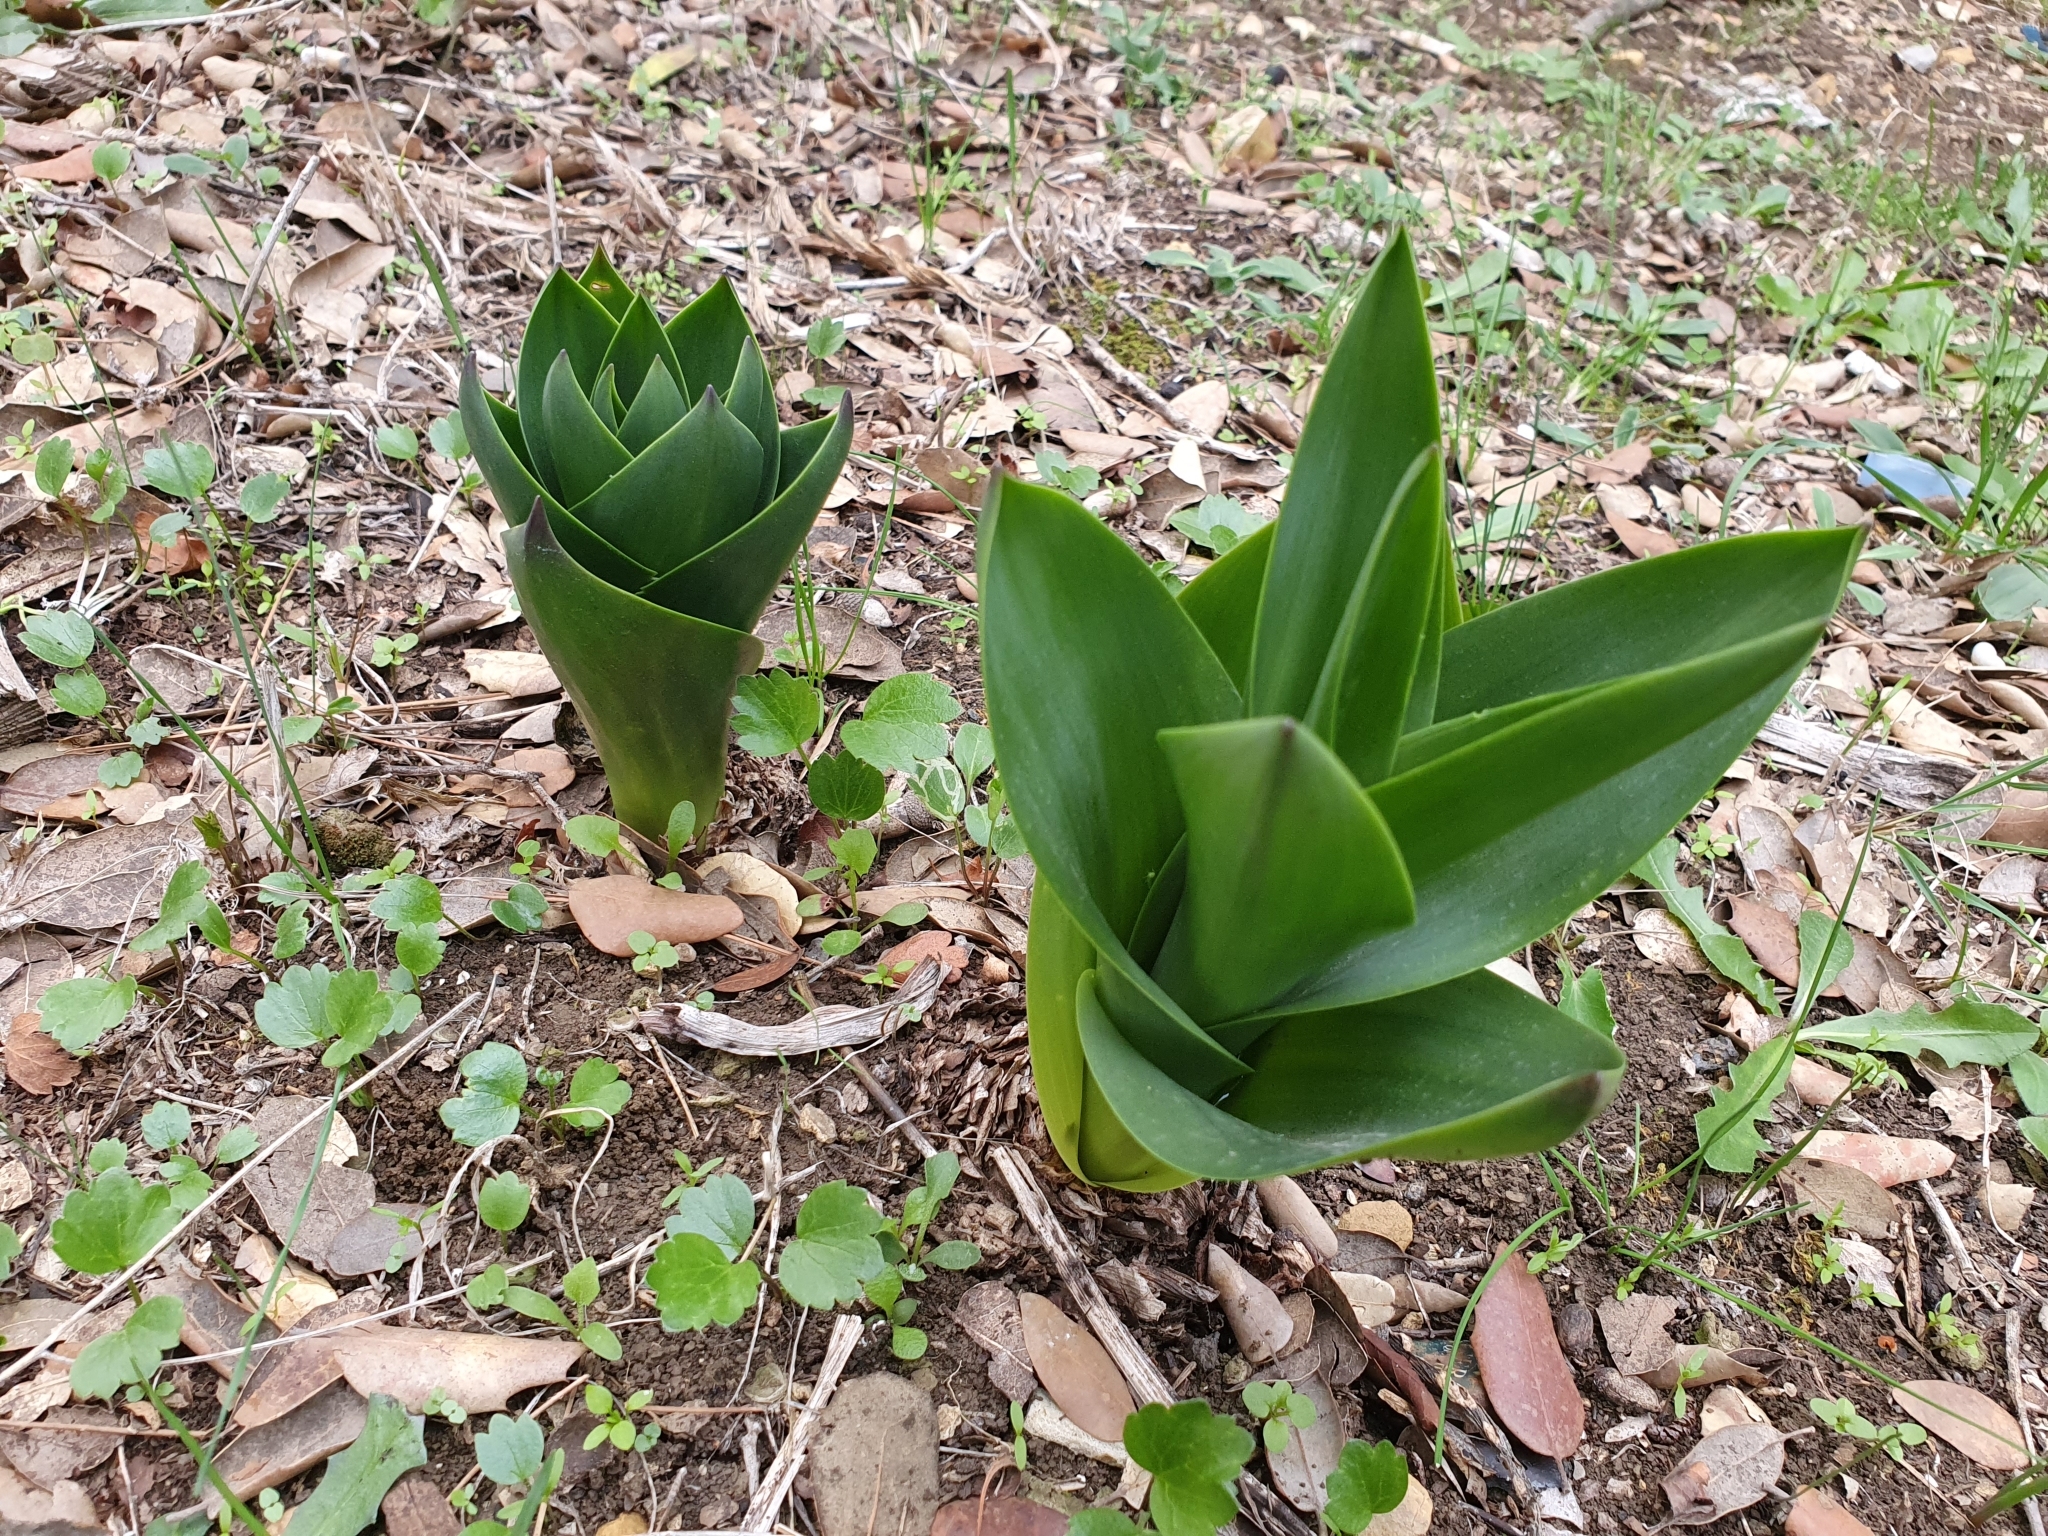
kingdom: Plantae
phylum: Tracheophyta
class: Liliopsida
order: Asparagales
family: Asparagaceae
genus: Drimia
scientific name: Drimia numidica
